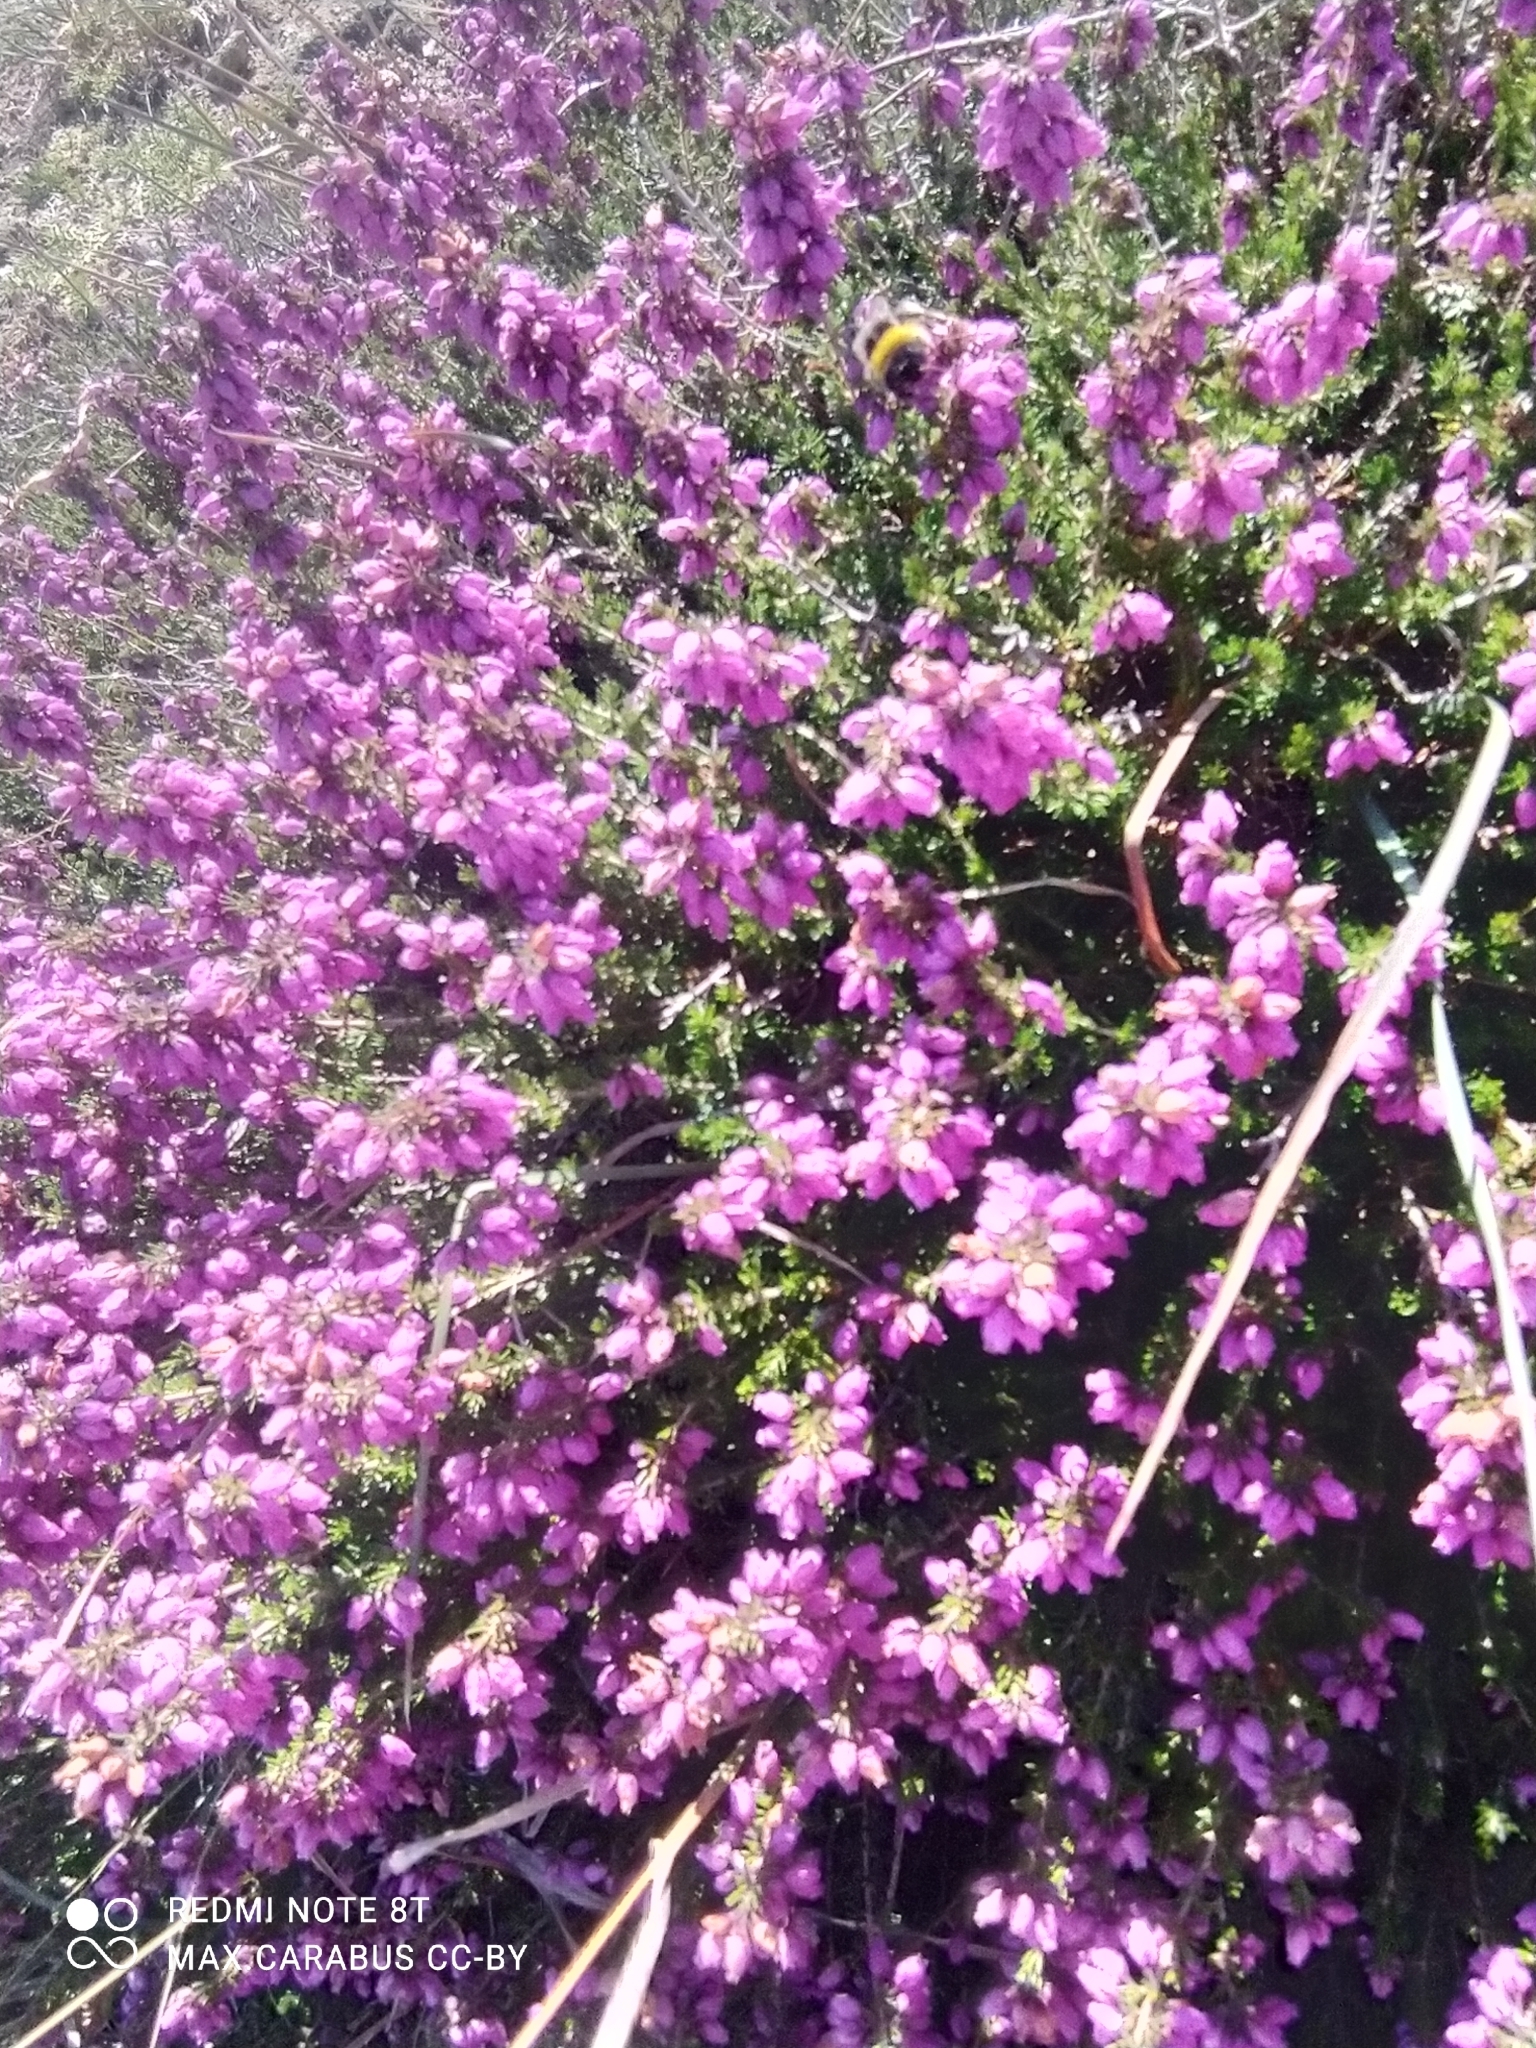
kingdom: Plantae
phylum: Tracheophyta
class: Magnoliopsida
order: Ericales
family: Ericaceae
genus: Erica
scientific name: Erica cinerea
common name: Bell heather
